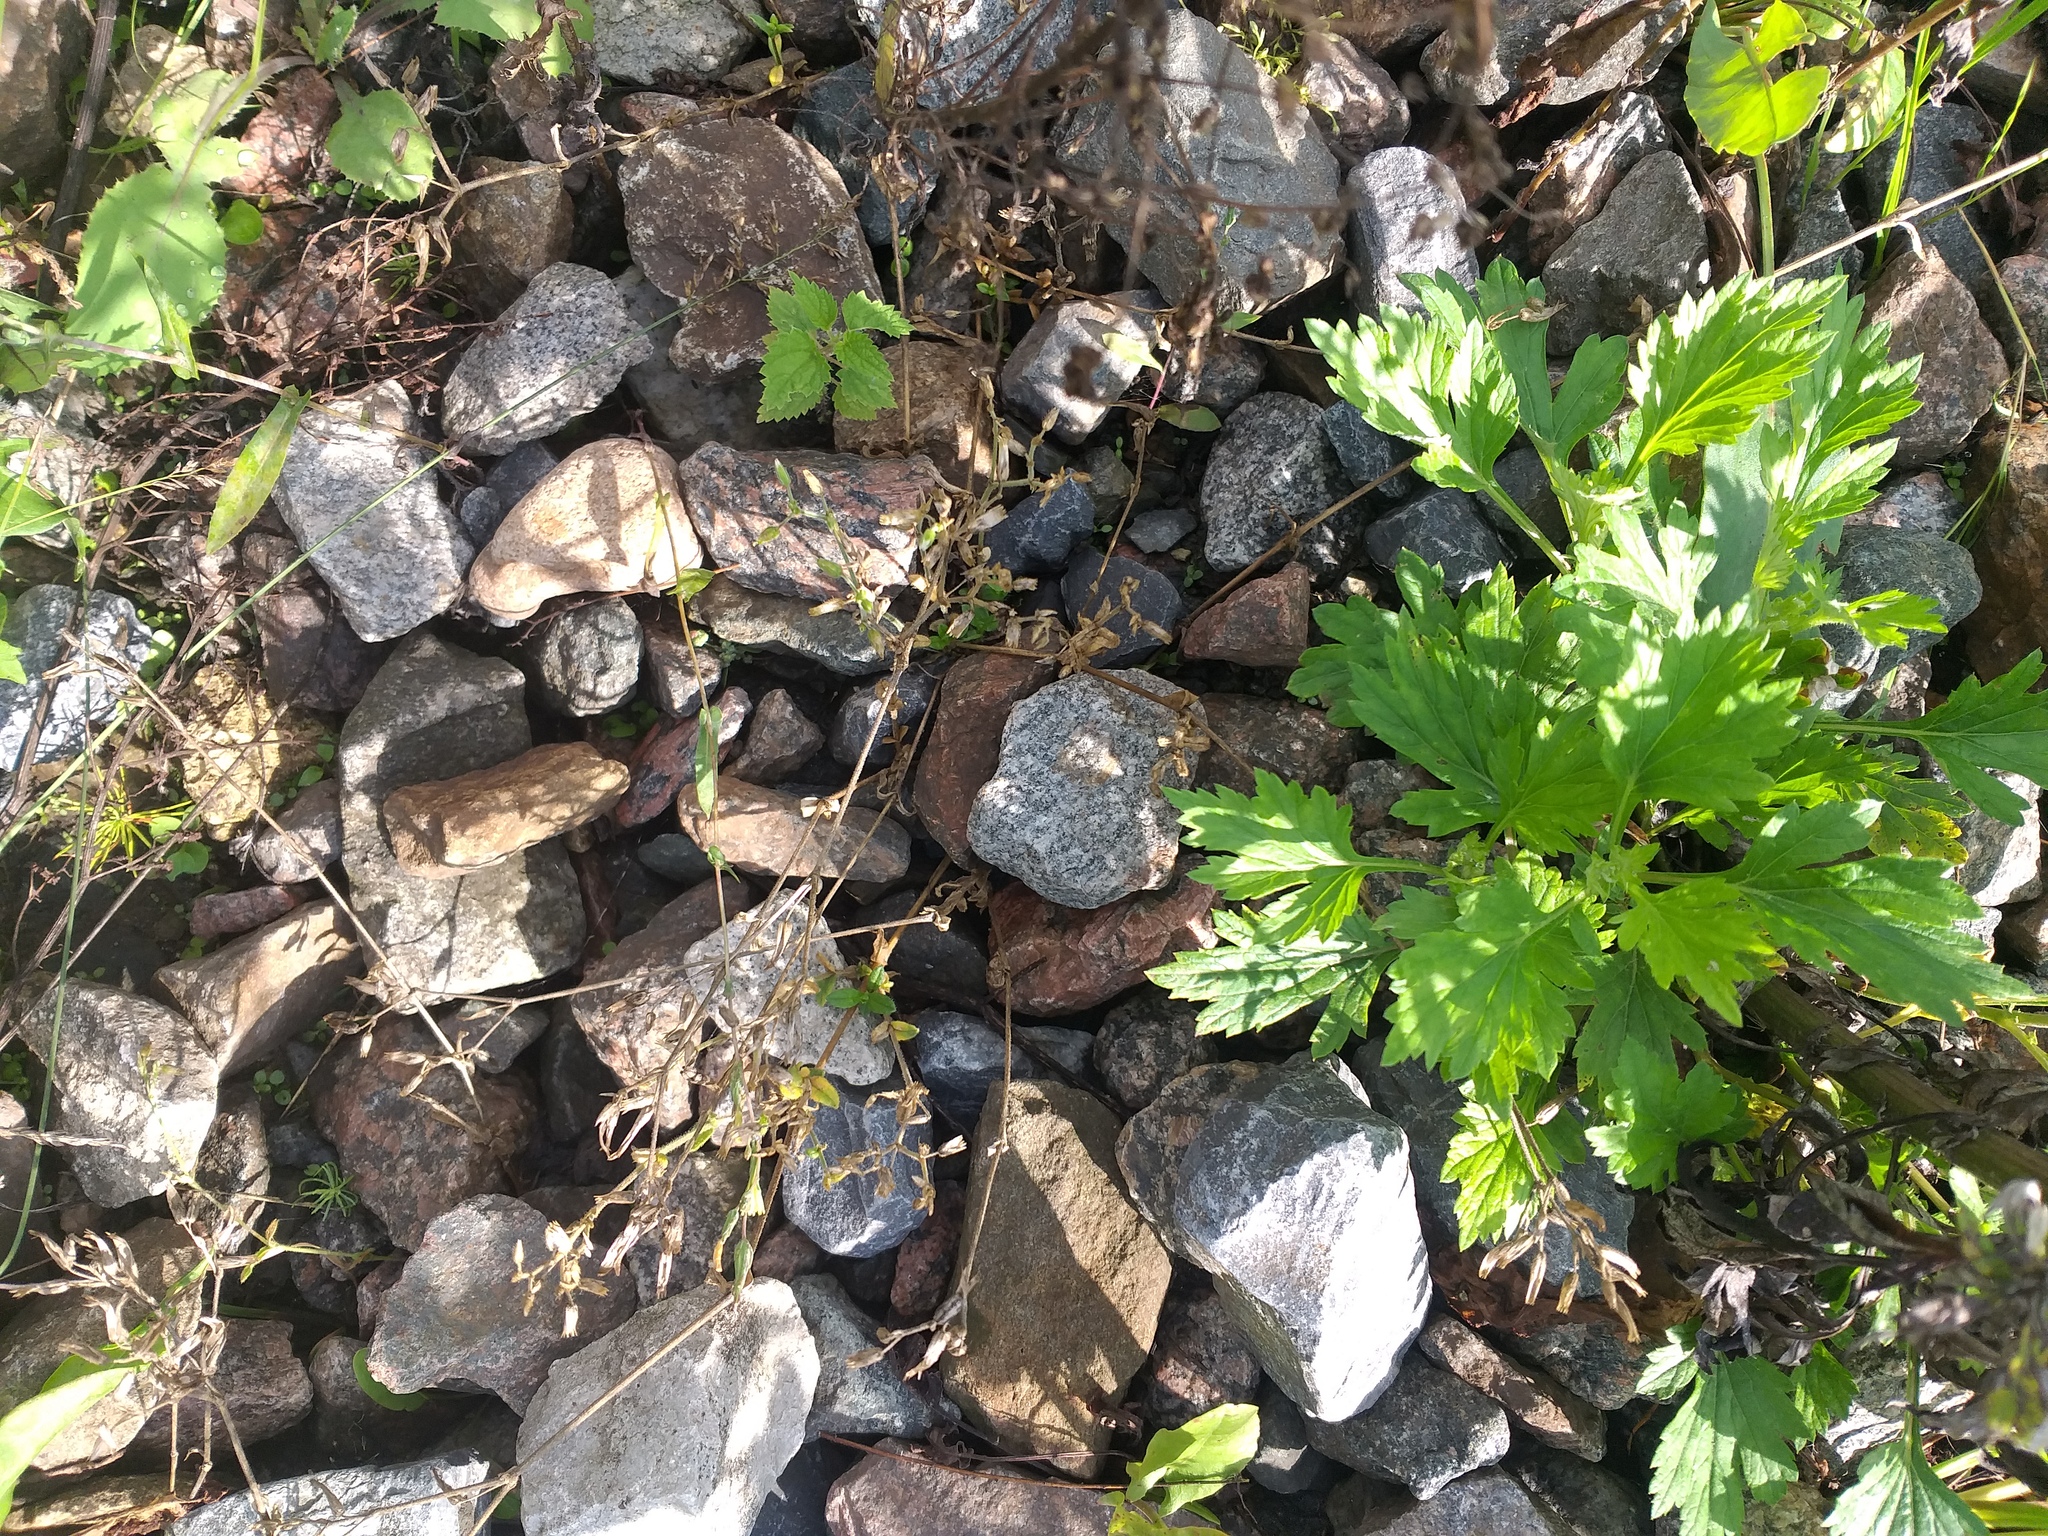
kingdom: Plantae
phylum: Tracheophyta
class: Magnoliopsida
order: Caryophyllales
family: Caryophyllaceae
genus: Cerastium
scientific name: Cerastium holosteoides
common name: Big chickweed
